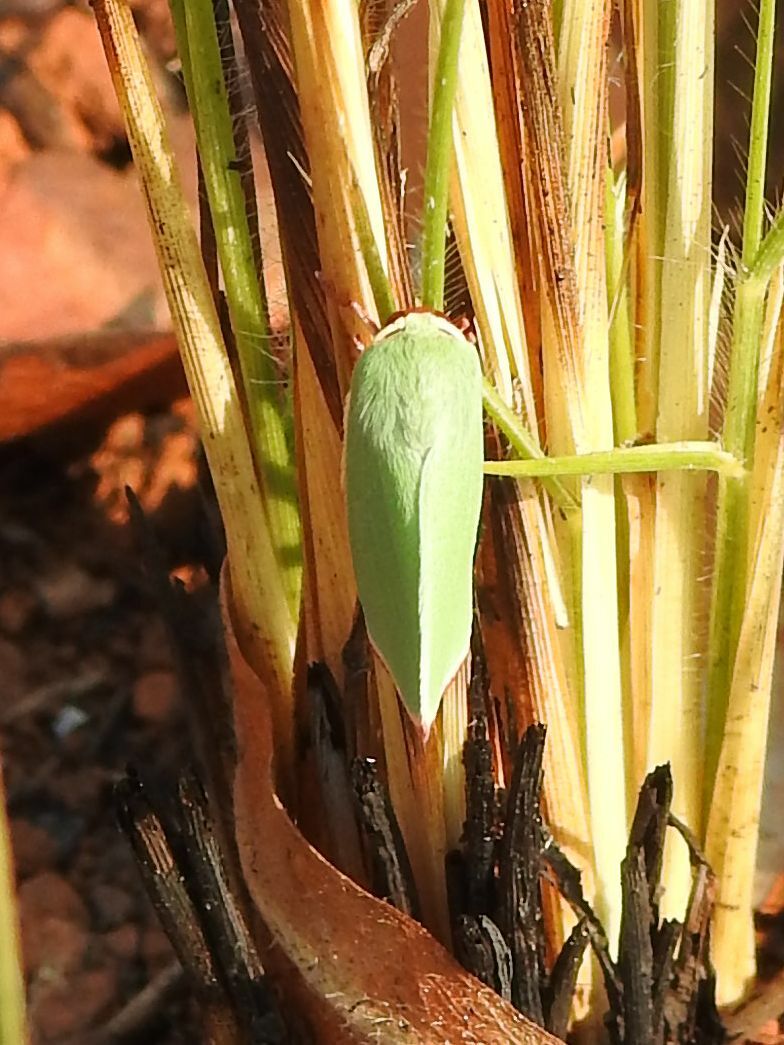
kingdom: Animalia
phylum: Arthropoda
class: Insecta
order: Lepidoptera
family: Geometridae
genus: Omphax
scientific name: Omphax bacoti
